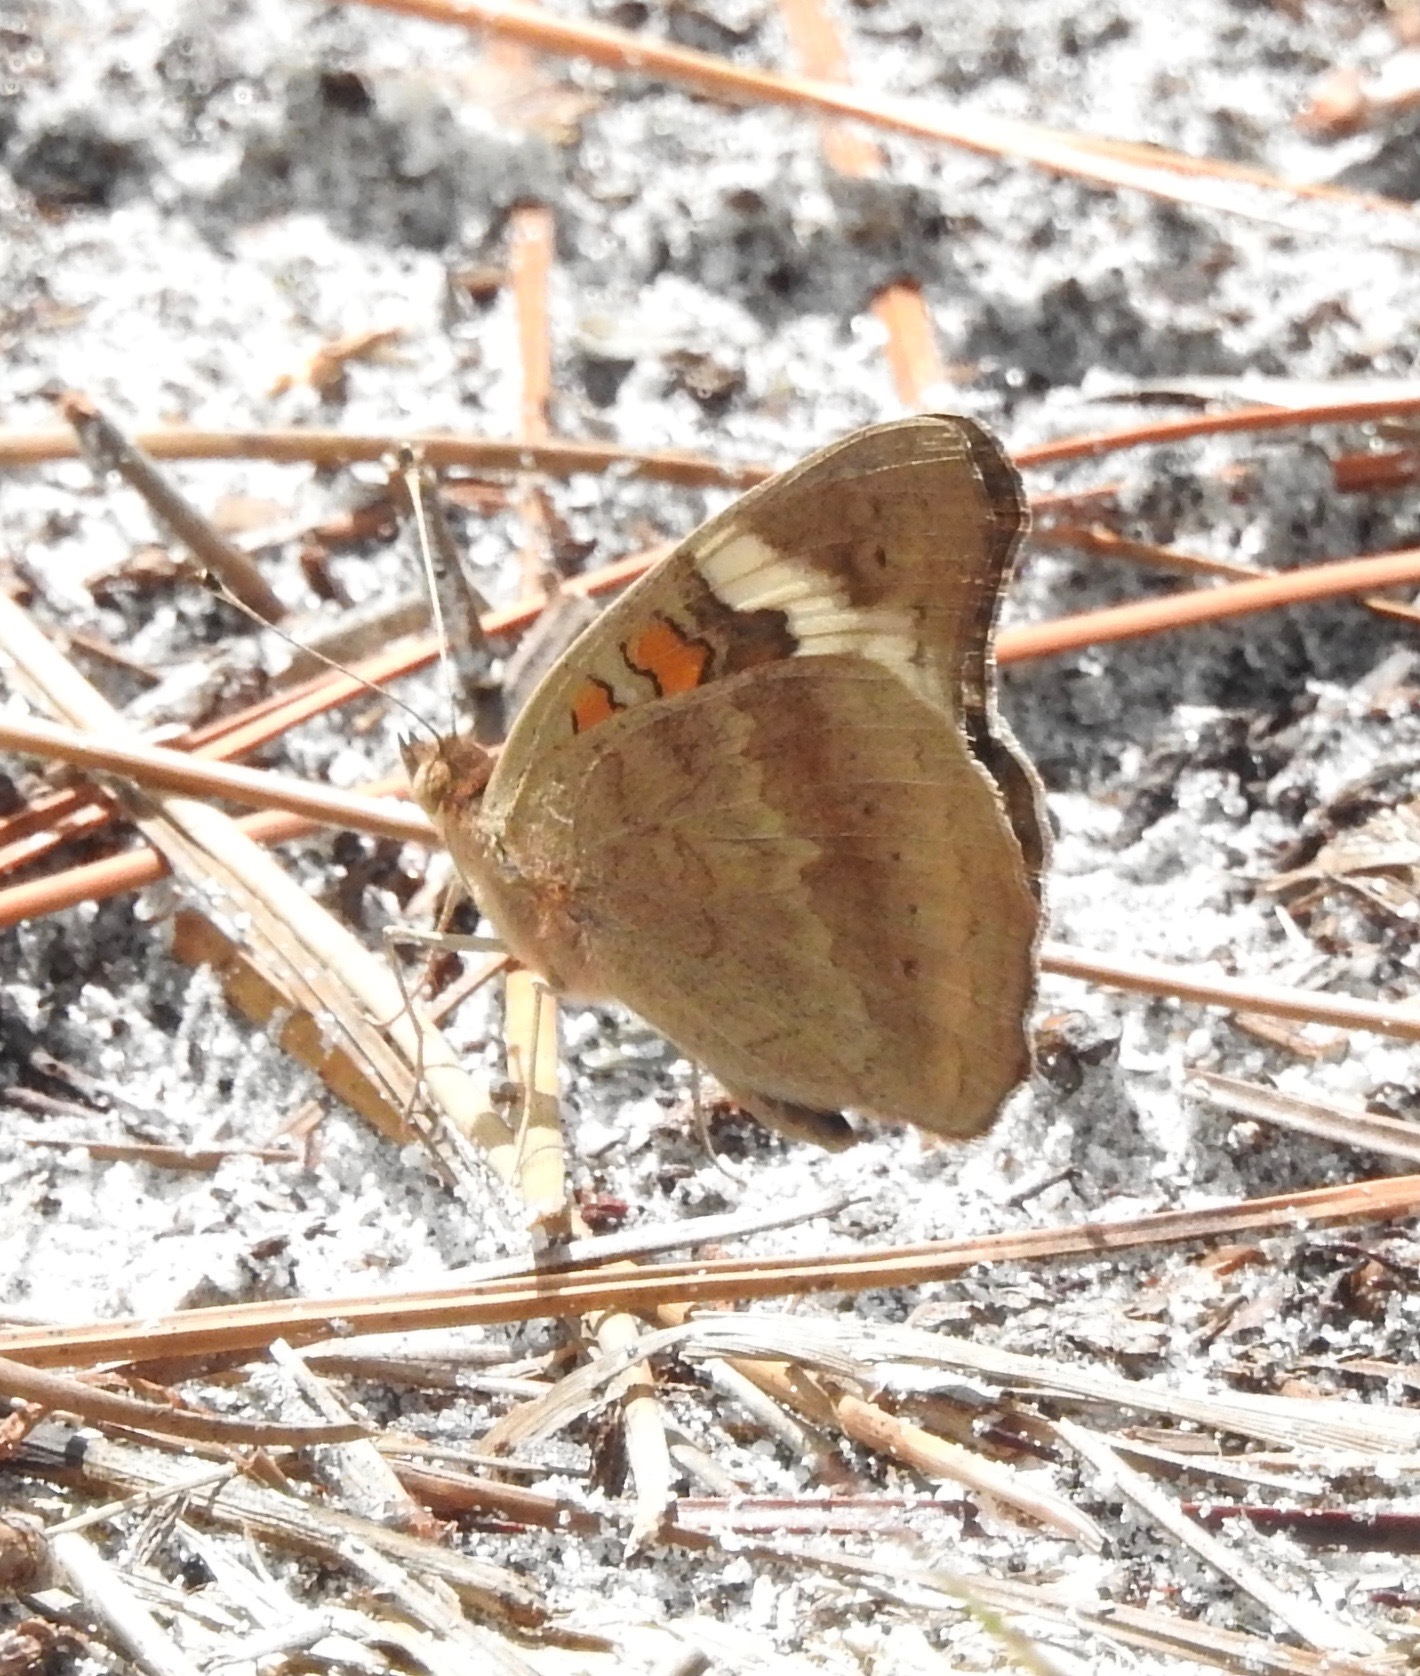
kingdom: Animalia
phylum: Arthropoda
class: Insecta
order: Lepidoptera
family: Nymphalidae
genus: Junonia
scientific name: Junonia coenia
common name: Common buckeye
